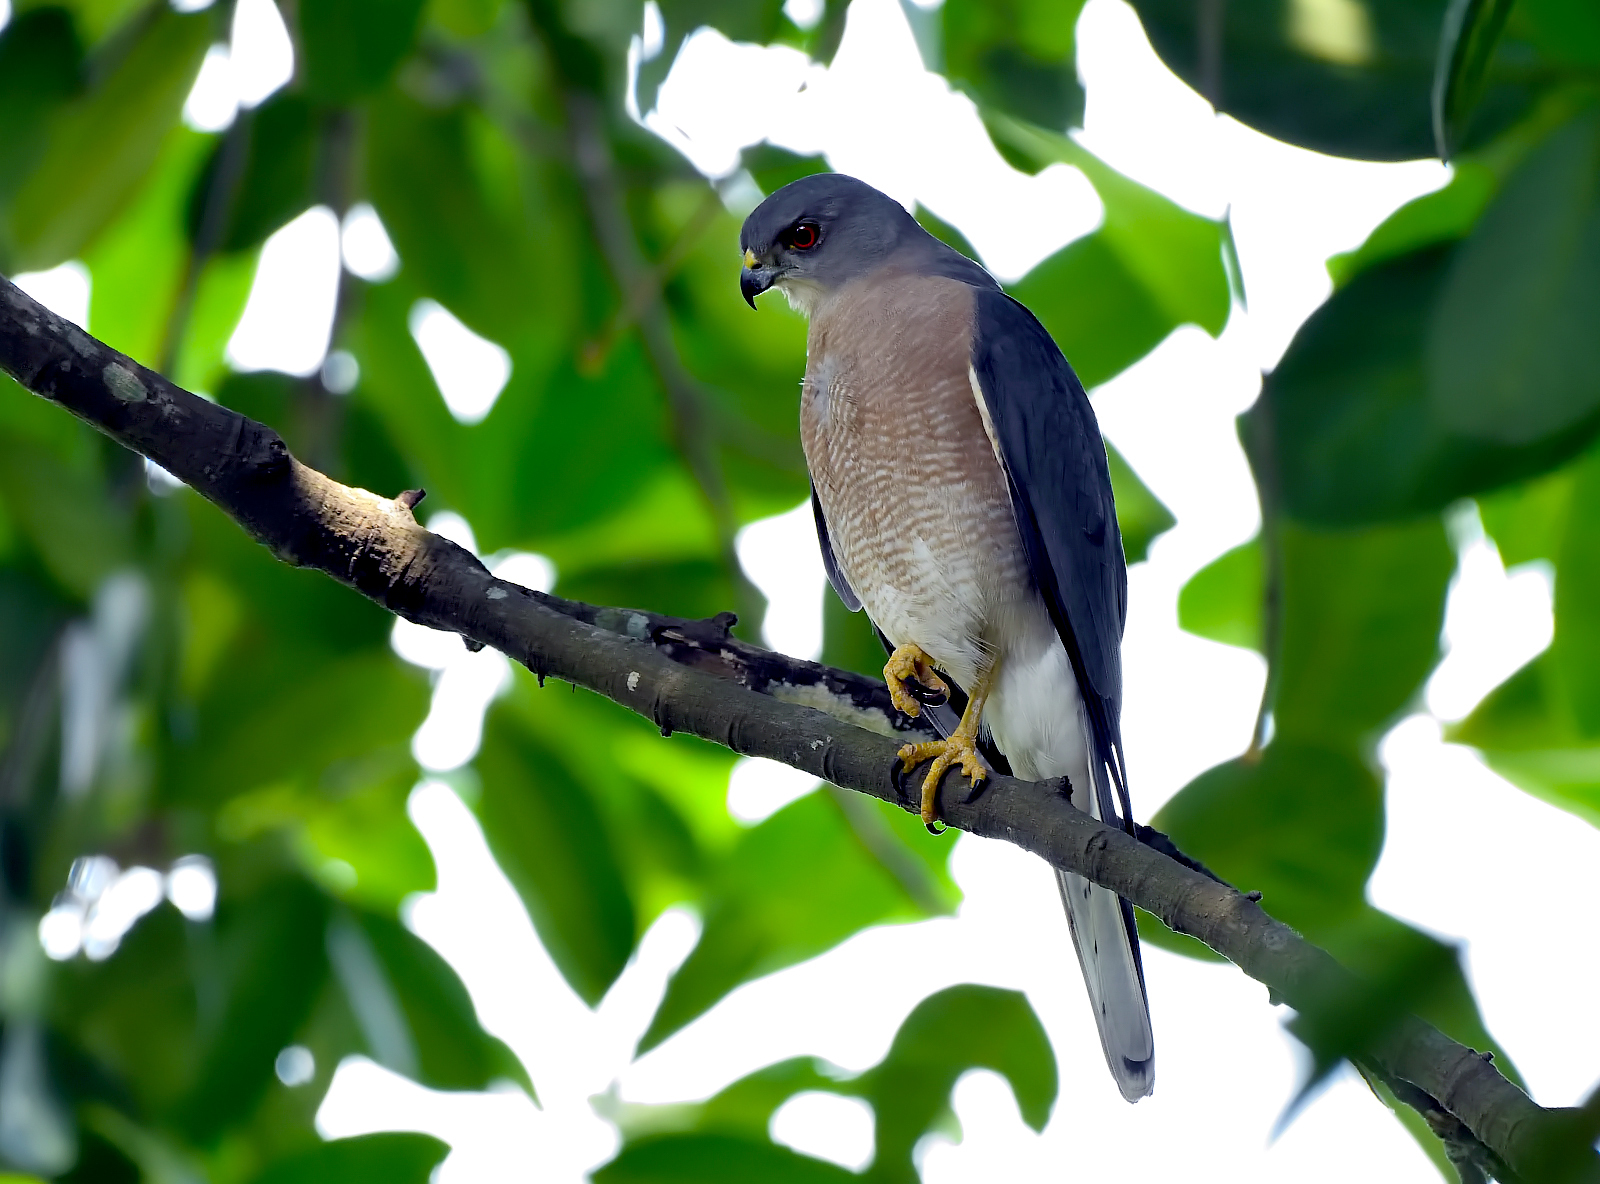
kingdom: Animalia
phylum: Chordata
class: Aves
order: Accipitriformes
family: Accipitridae
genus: Accipiter
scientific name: Accipiter badius
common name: Shikra
